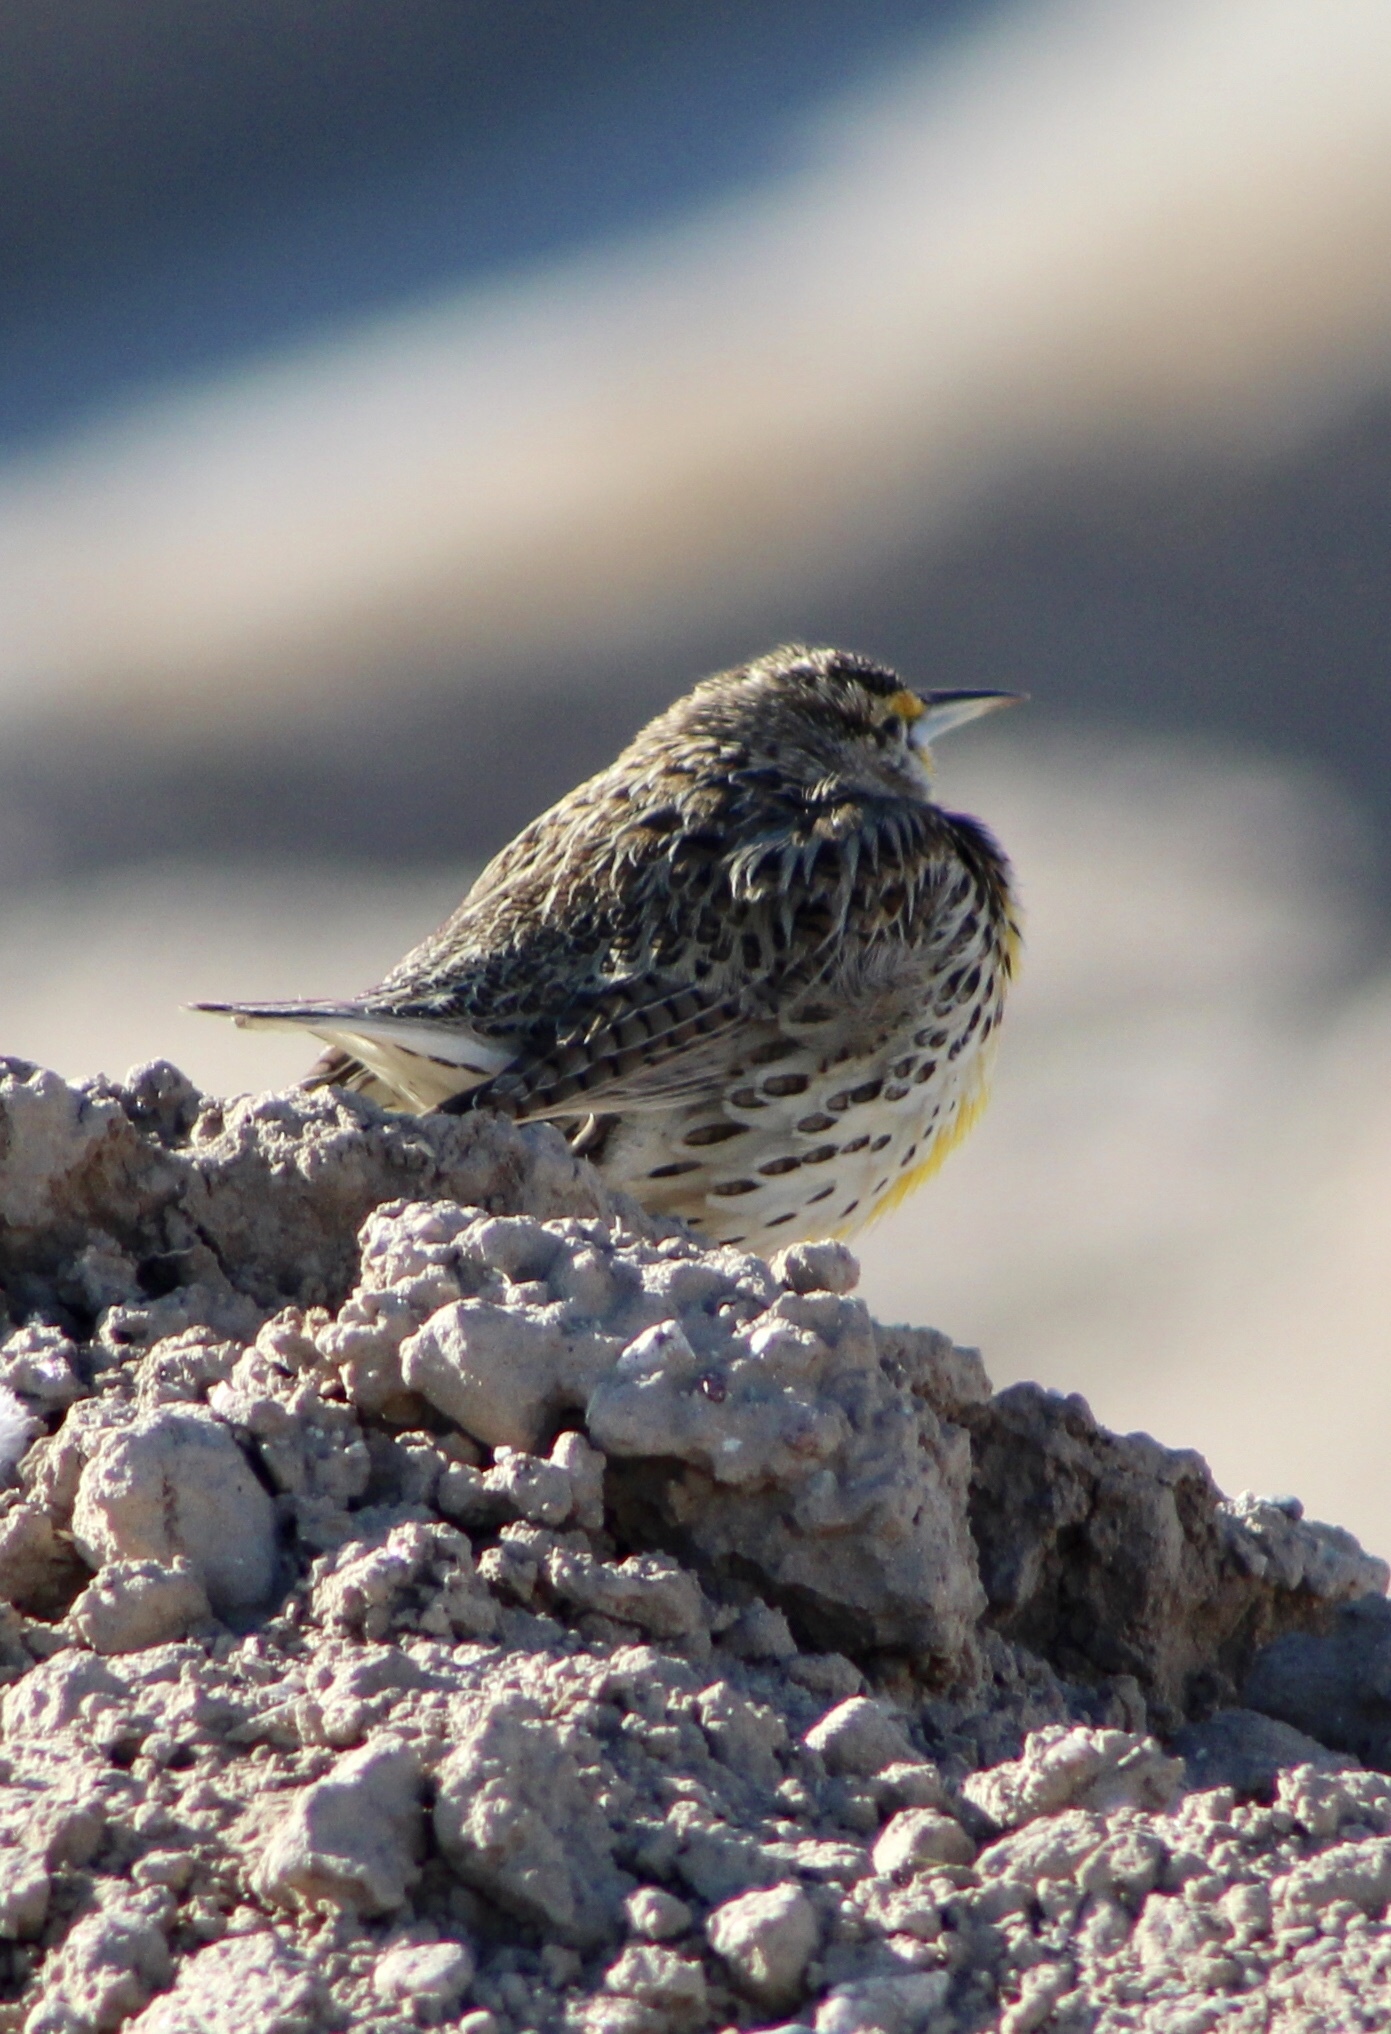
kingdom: Animalia
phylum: Chordata
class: Aves
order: Passeriformes
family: Icteridae
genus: Sturnella
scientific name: Sturnella neglecta
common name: Western meadowlark
